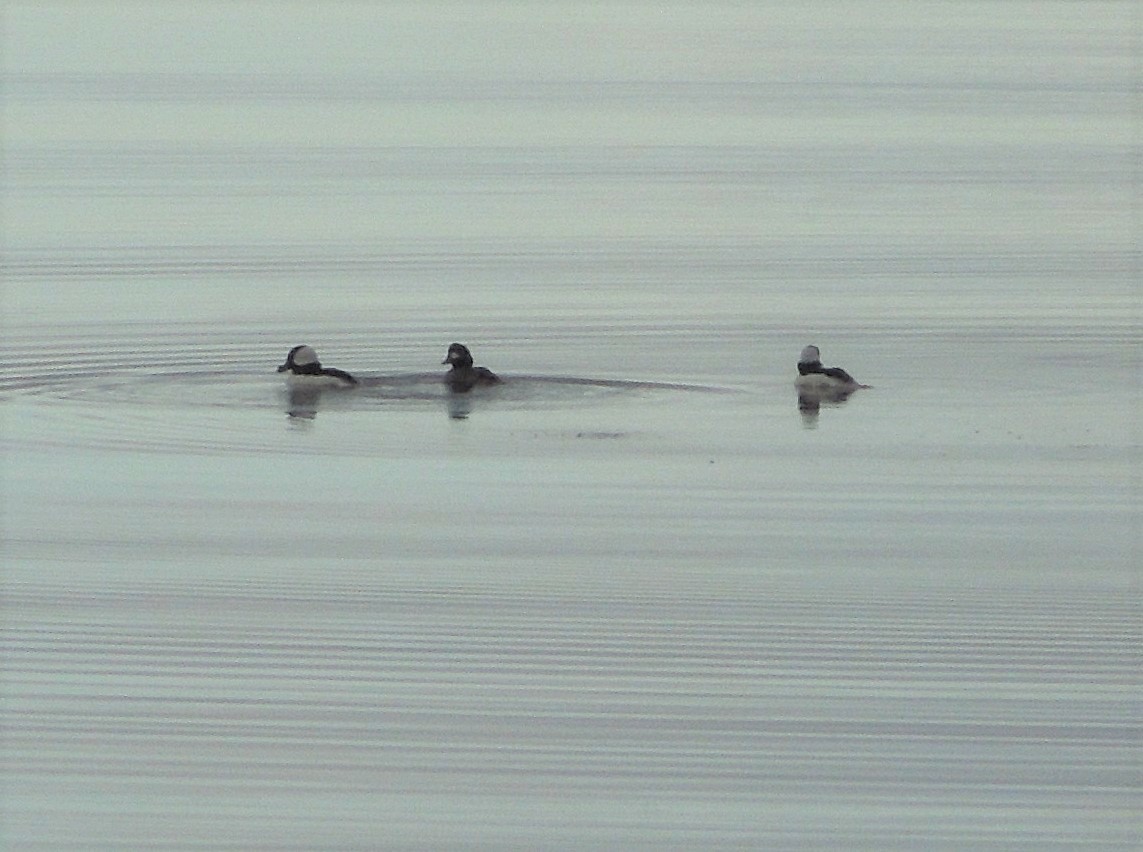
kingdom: Animalia
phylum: Chordata
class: Aves
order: Anseriformes
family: Anatidae
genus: Bucephala
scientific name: Bucephala albeola
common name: Bufflehead
